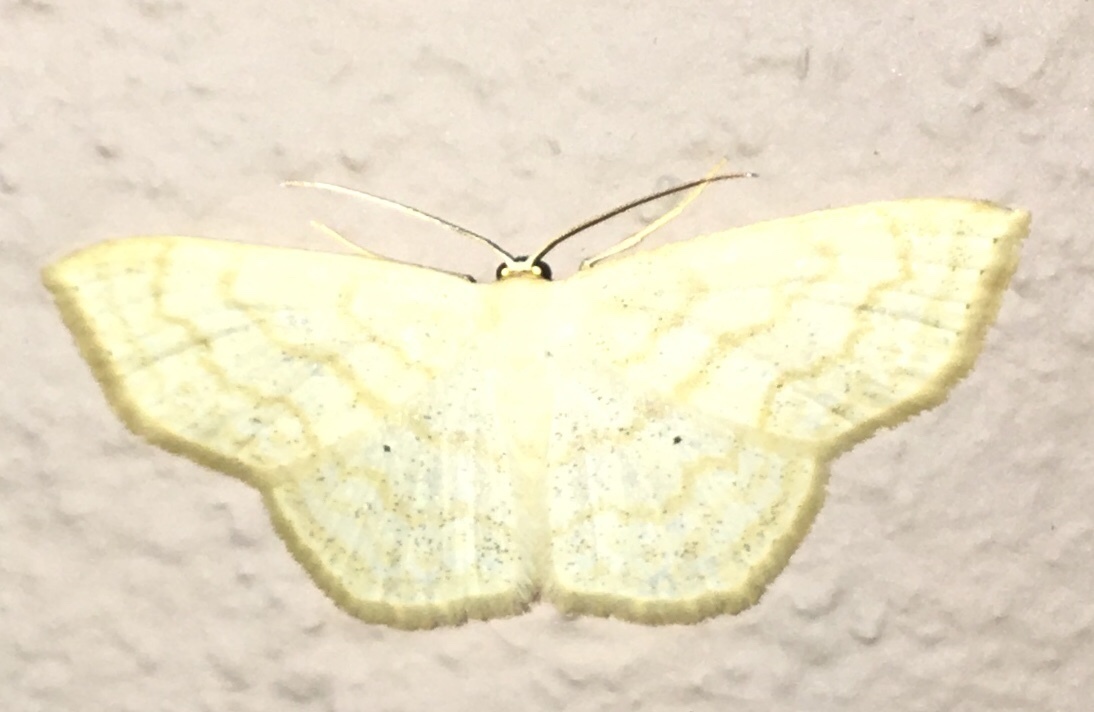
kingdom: Animalia
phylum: Arthropoda
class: Insecta
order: Lepidoptera
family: Geometridae
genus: Scopula
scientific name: Scopula limboundata
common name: Large lace border
